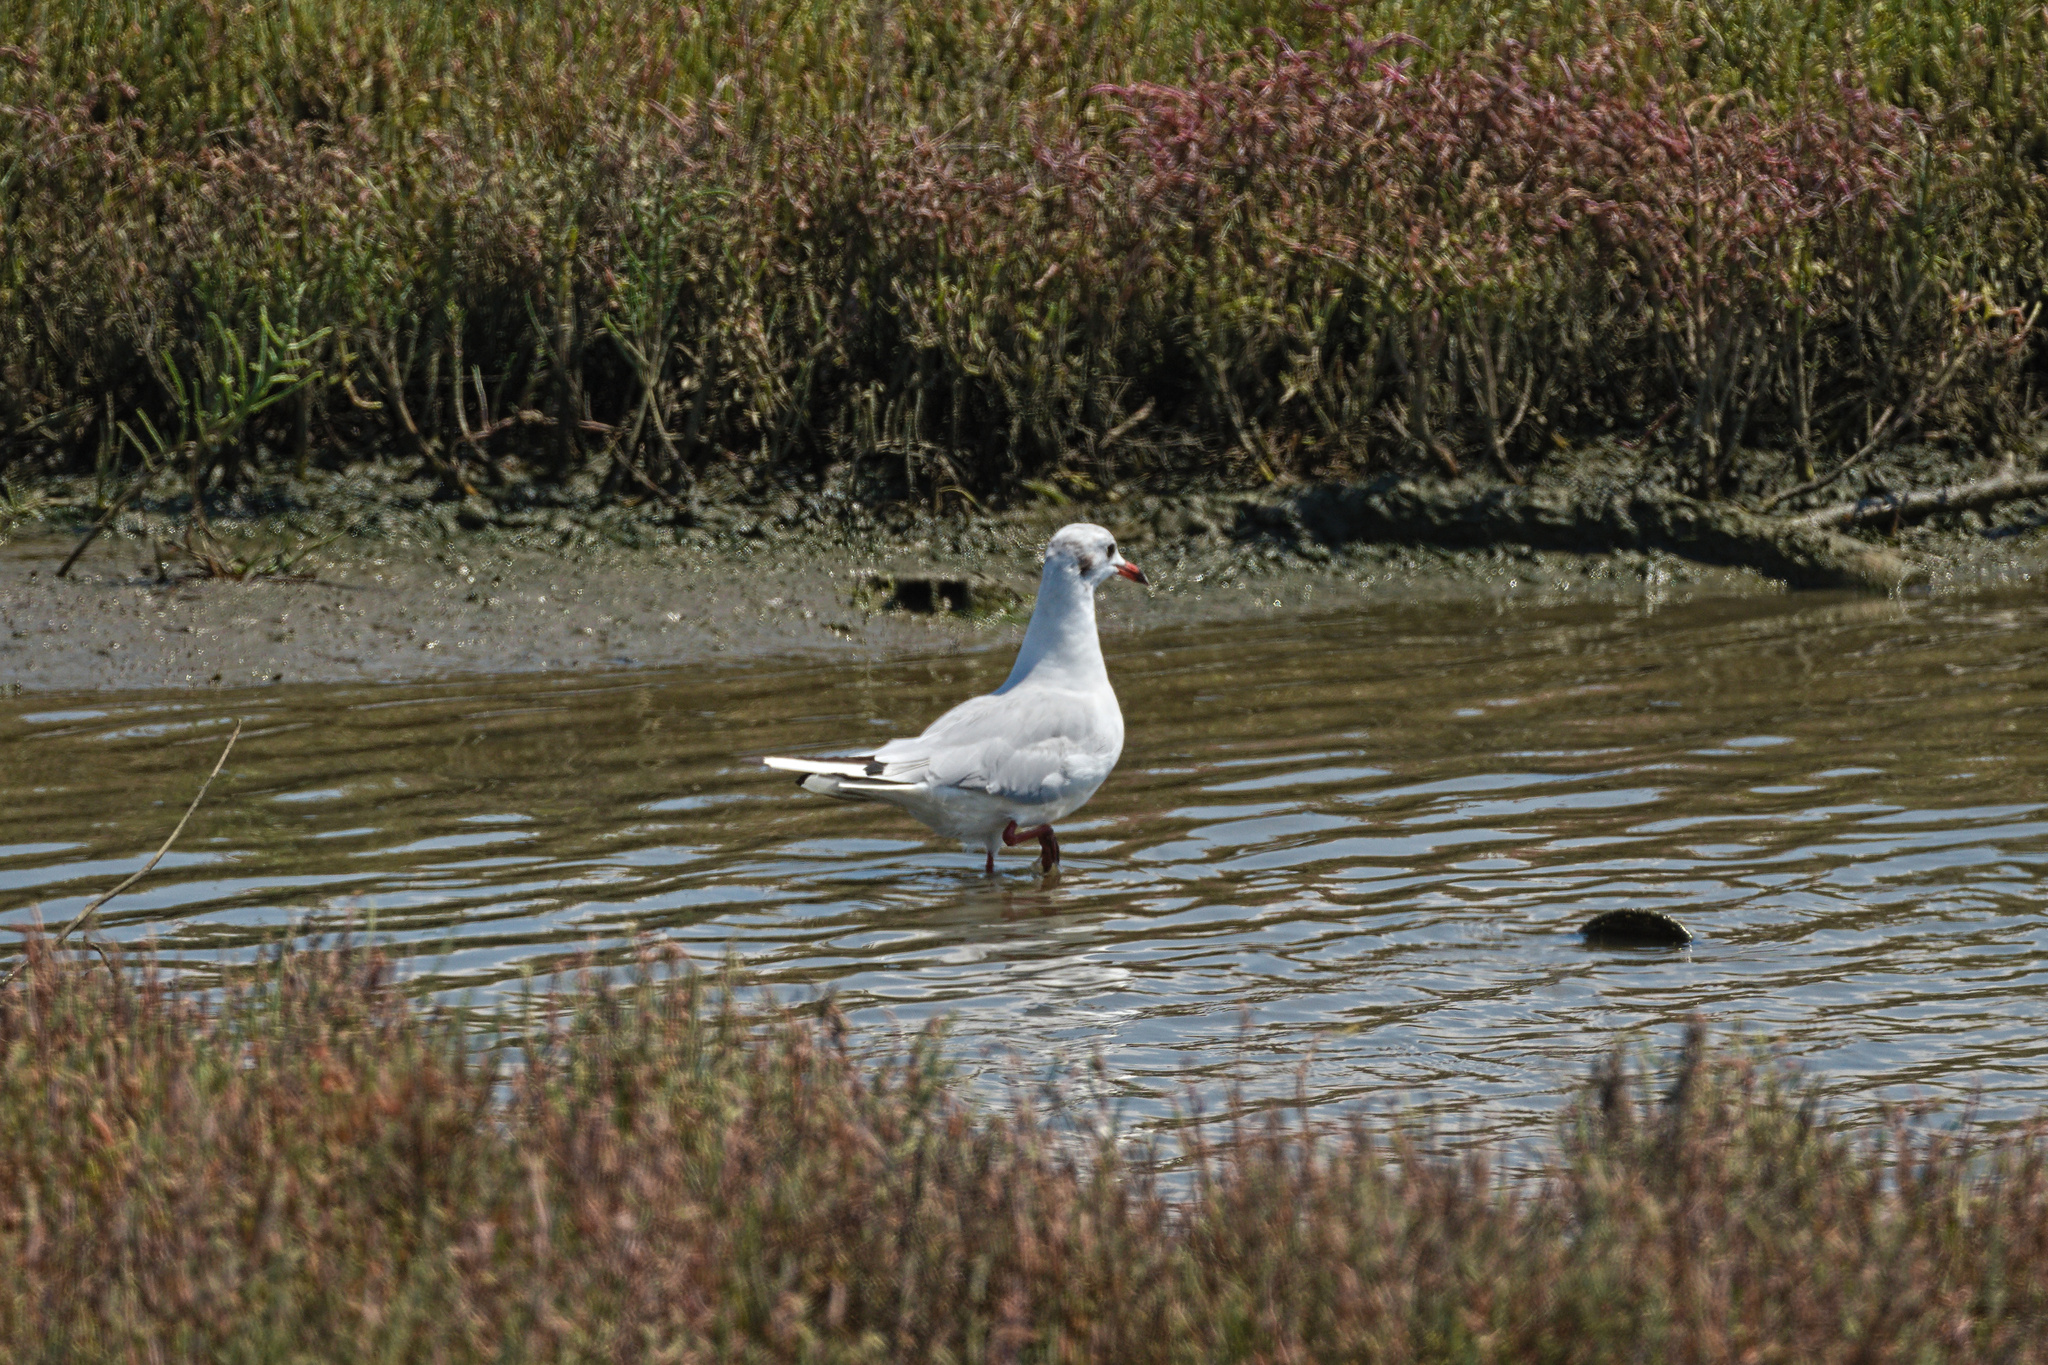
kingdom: Animalia
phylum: Chordata
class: Aves
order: Charadriiformes
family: Laridae
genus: Chroicocephalus
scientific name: Chroicocephalus ridibundus
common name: Black-headed gull
